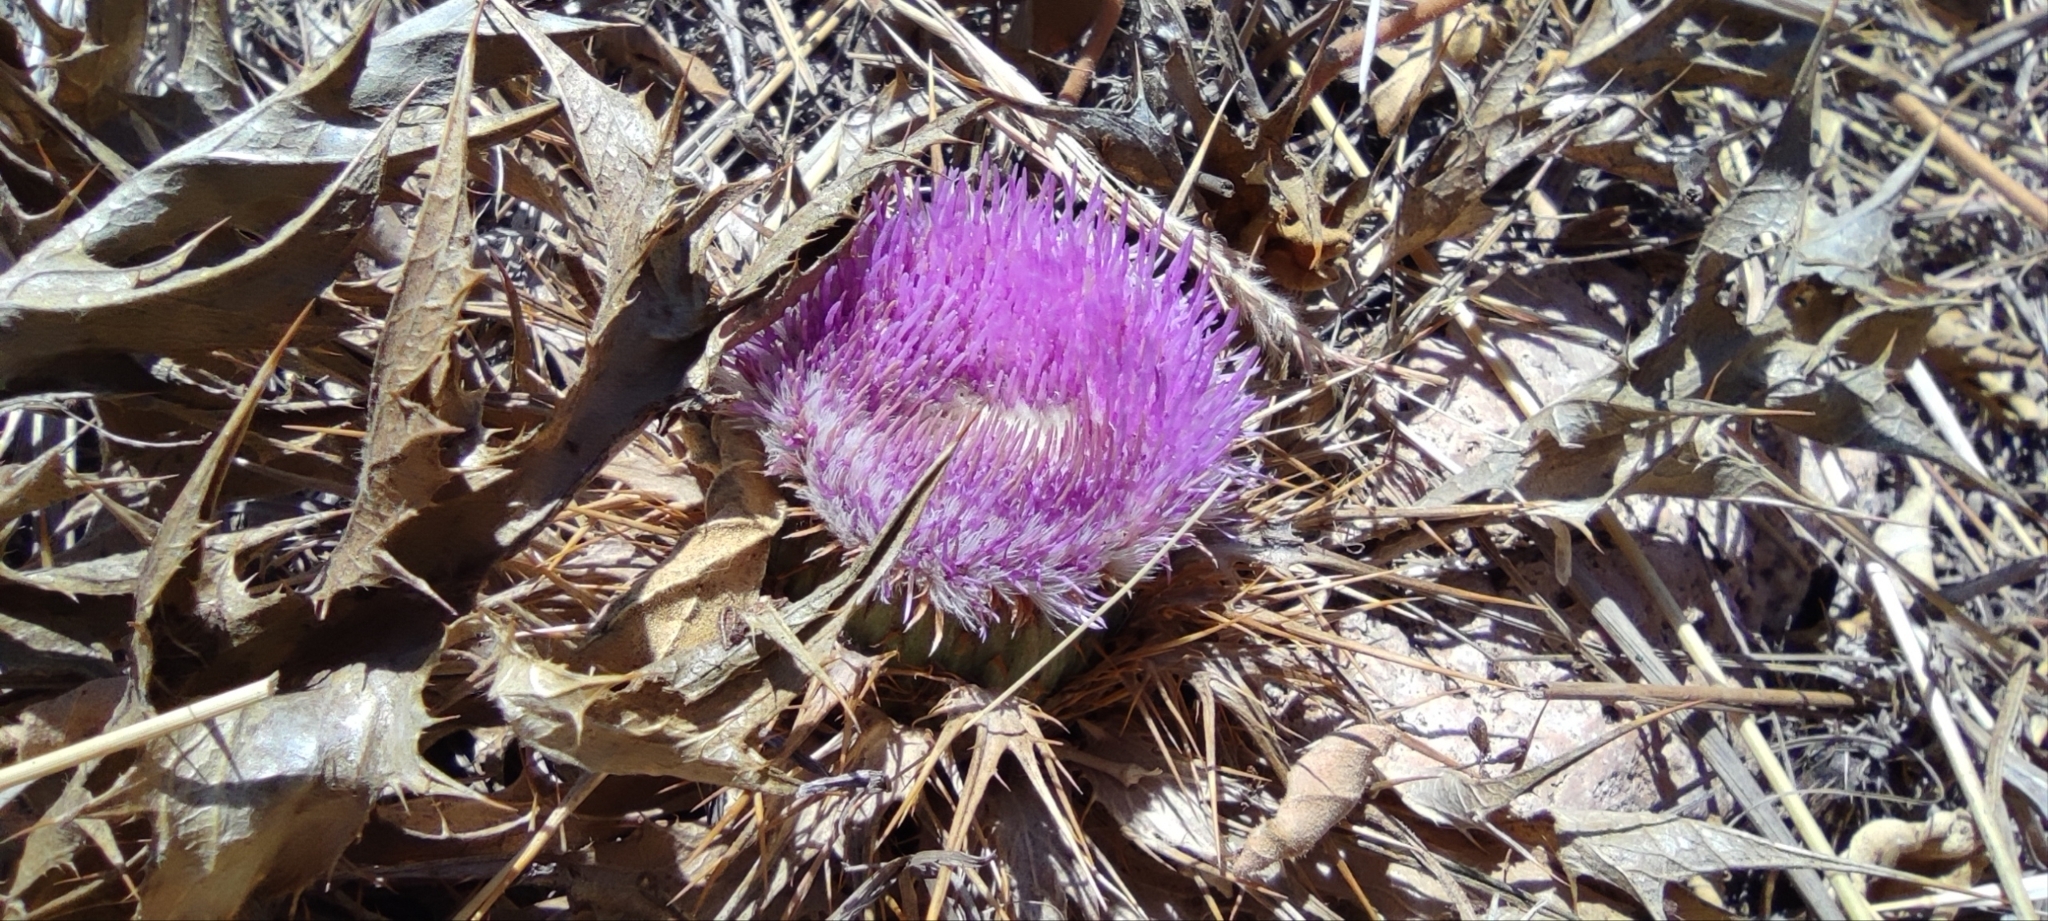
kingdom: Plantae
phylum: Tracheophyta
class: Magnoliopsida
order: Asterales
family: Asteraceae
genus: Chamaeleon
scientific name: Chamaeleon gummifer
